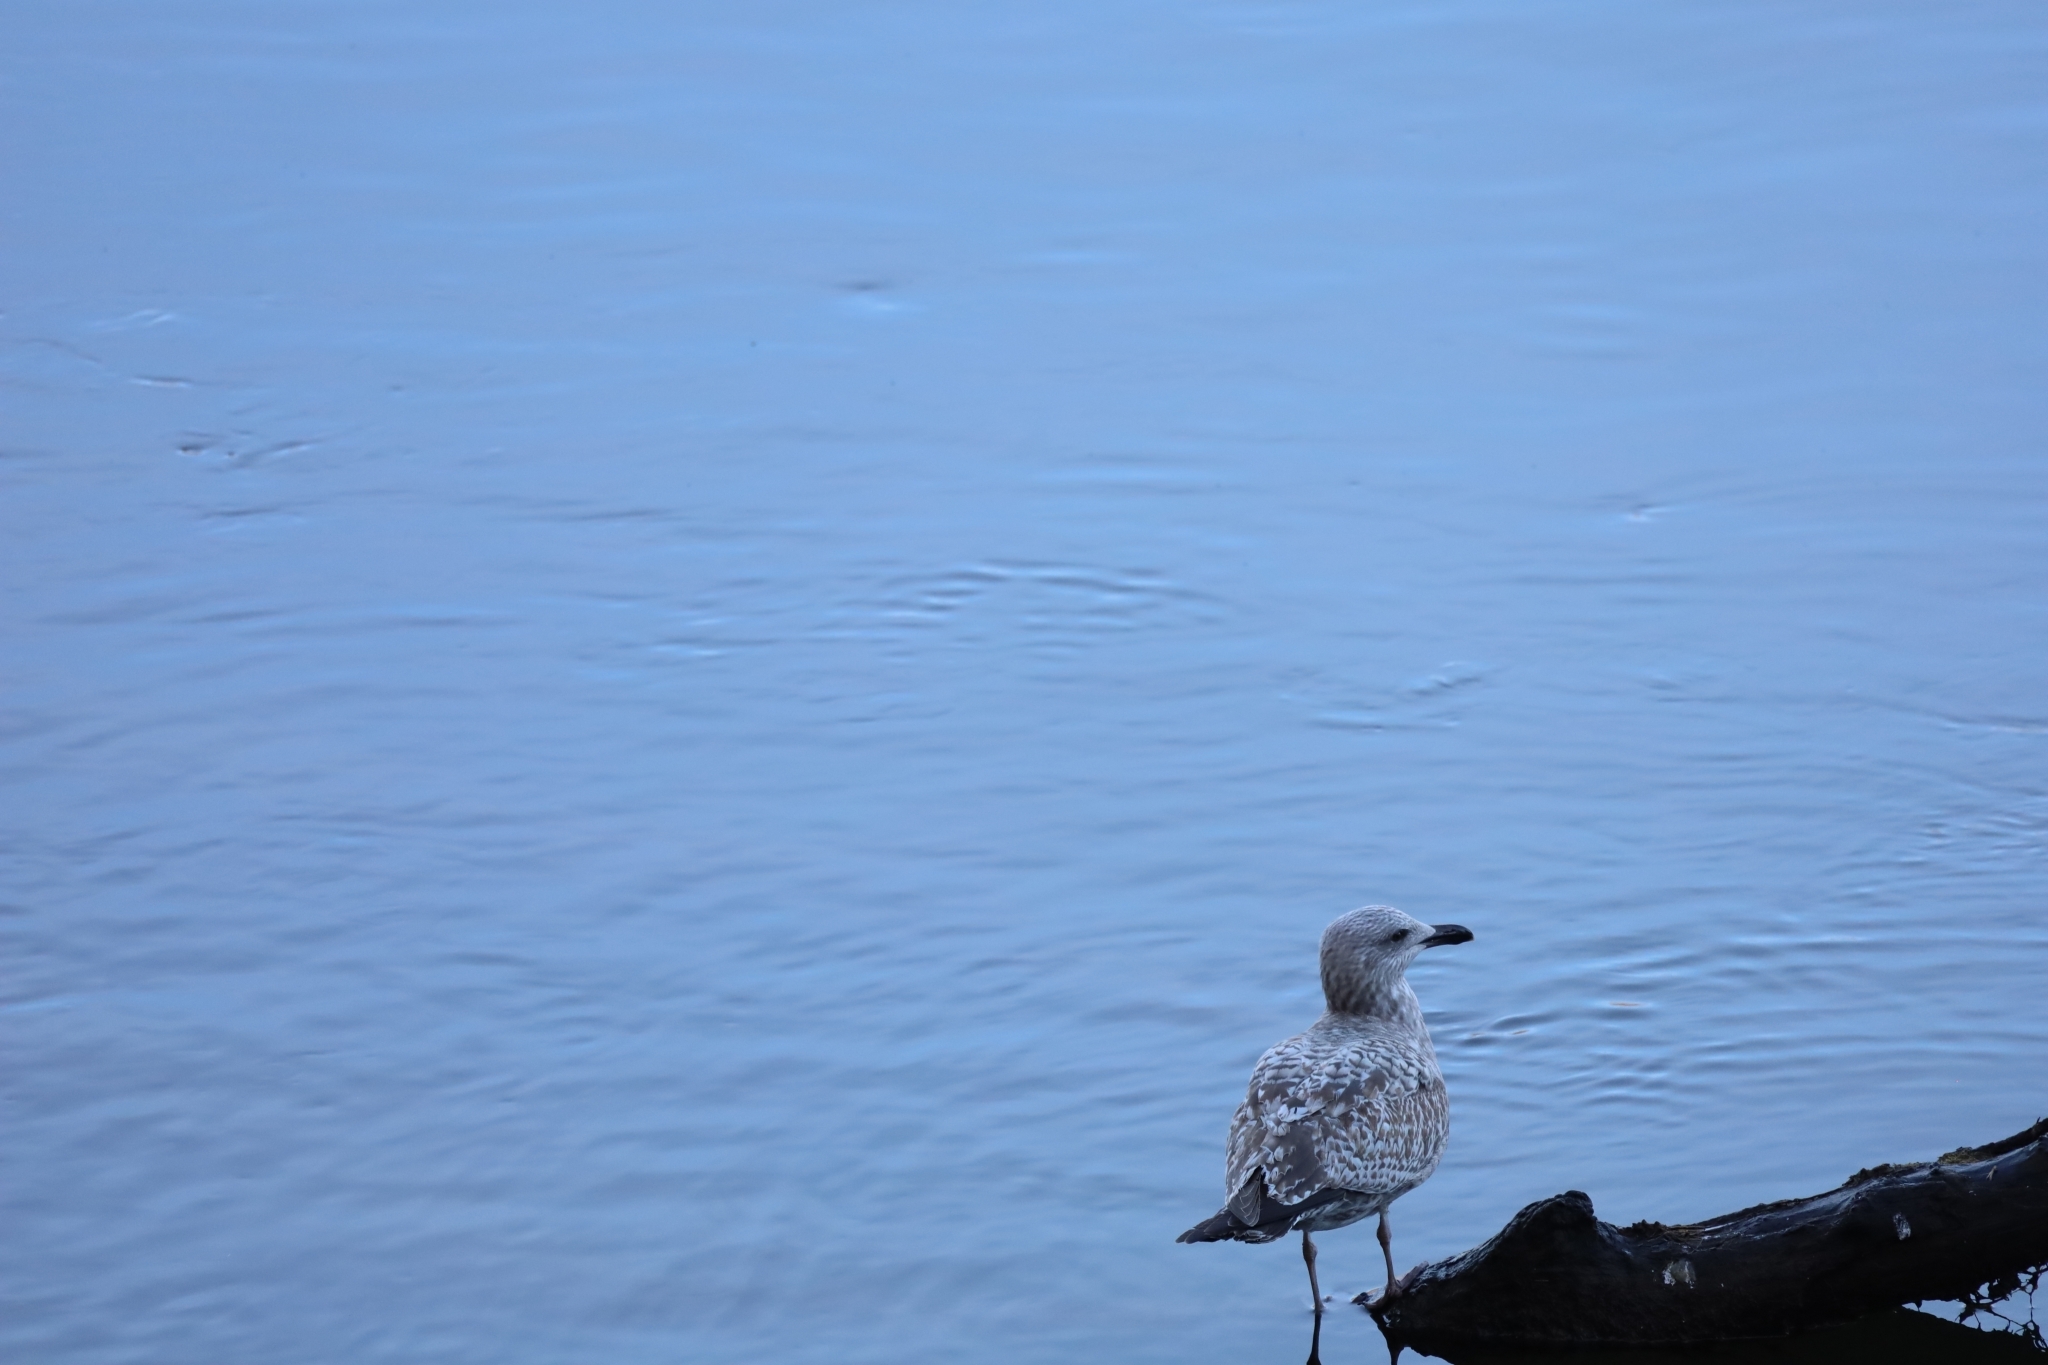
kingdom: Animalia
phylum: Chordata
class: Aves
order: Charadriiformes
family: Laridae
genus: Larus
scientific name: Larus argentatus
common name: Herring gull
